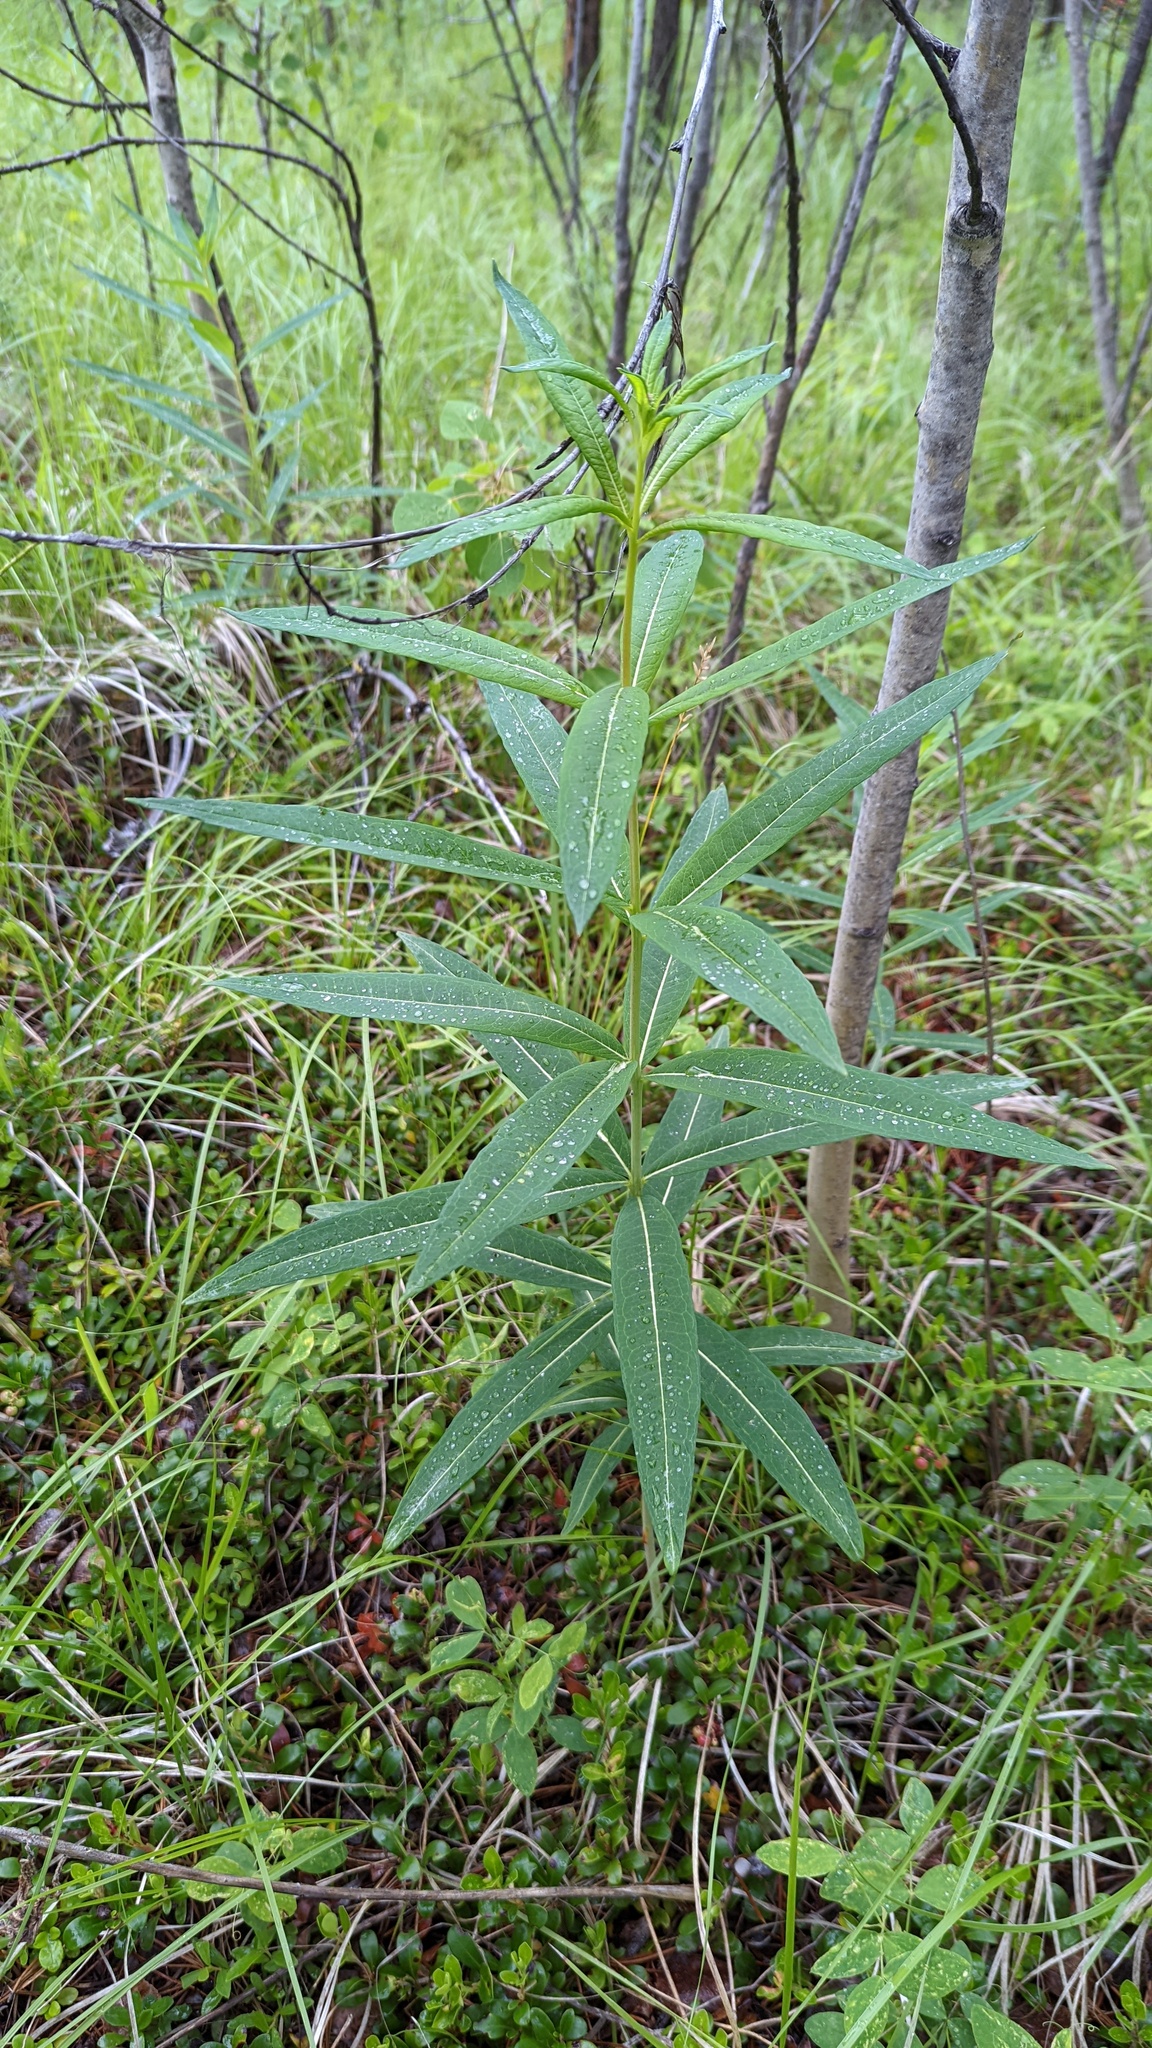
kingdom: Plantae
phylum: Tracheophyta
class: Magnoliopsida
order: Myrtales
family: Onagraceae
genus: Chamaenerion
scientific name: Chamaenerion angustifolium
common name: Fireweed
